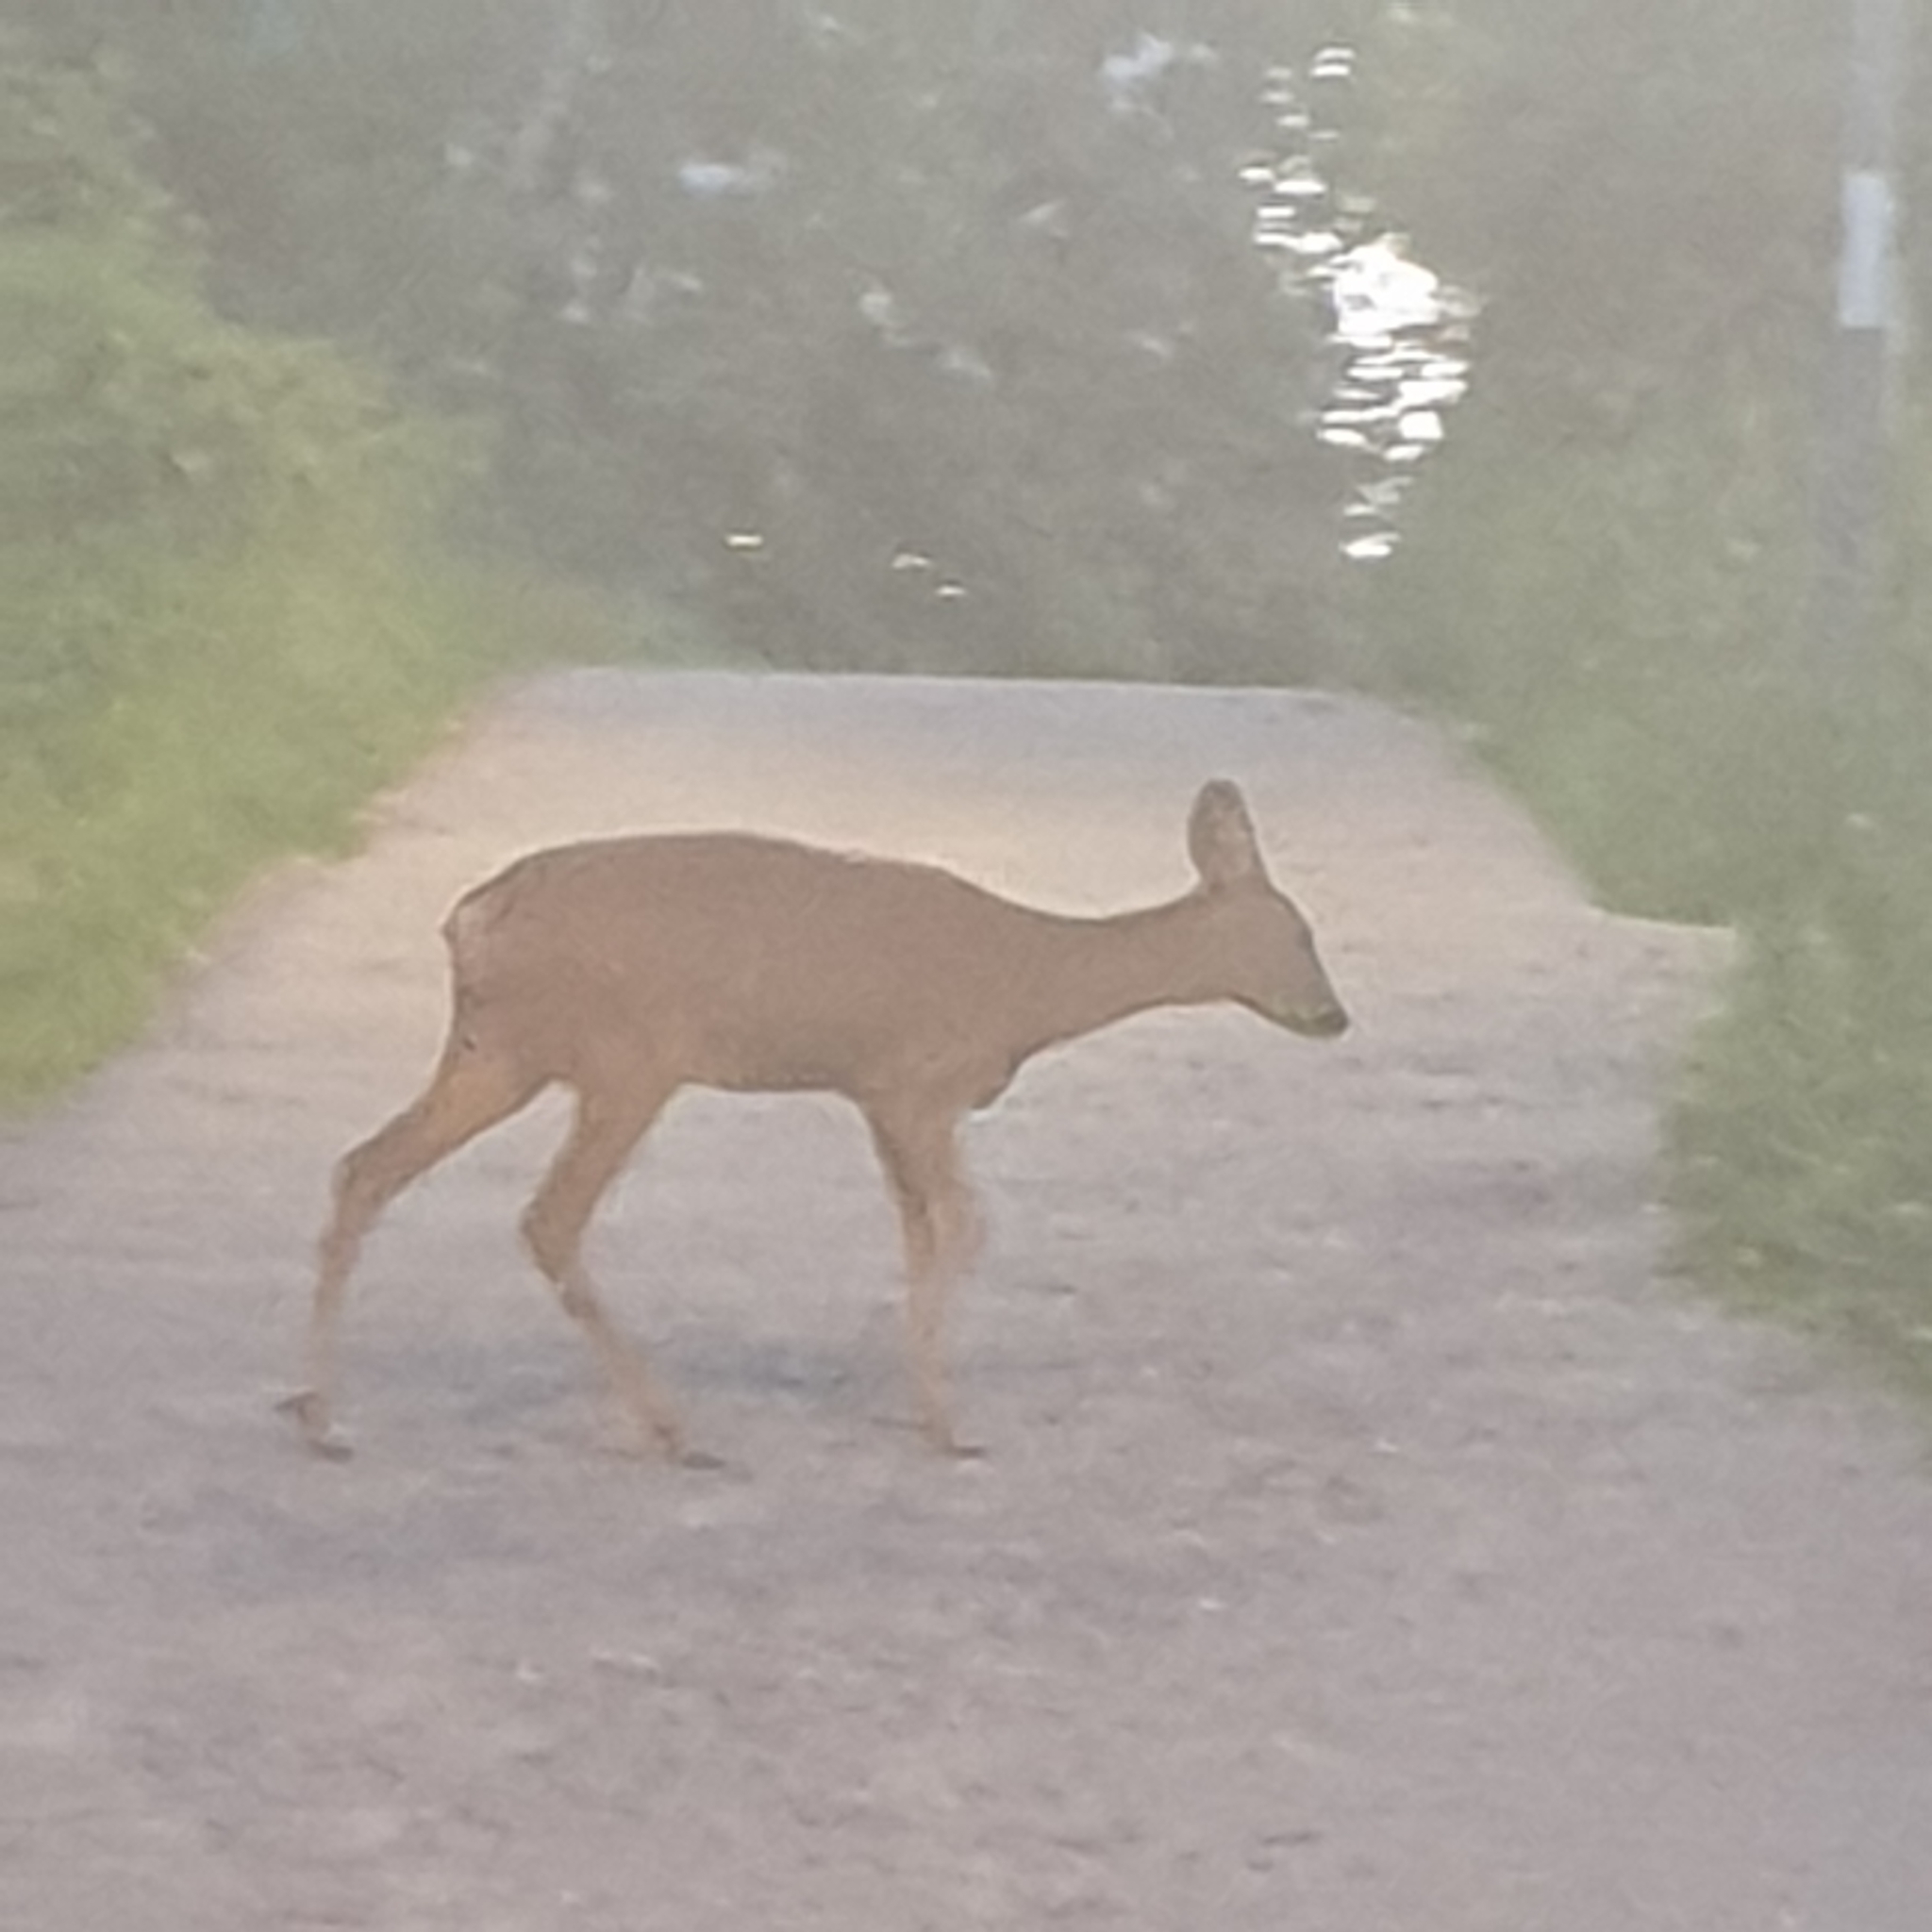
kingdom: Animalia
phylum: Chordata
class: Mammalia
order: Artiodactyla
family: Cervidae
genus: Capreolus
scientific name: Capreolus capreolus
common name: Western roe deer
